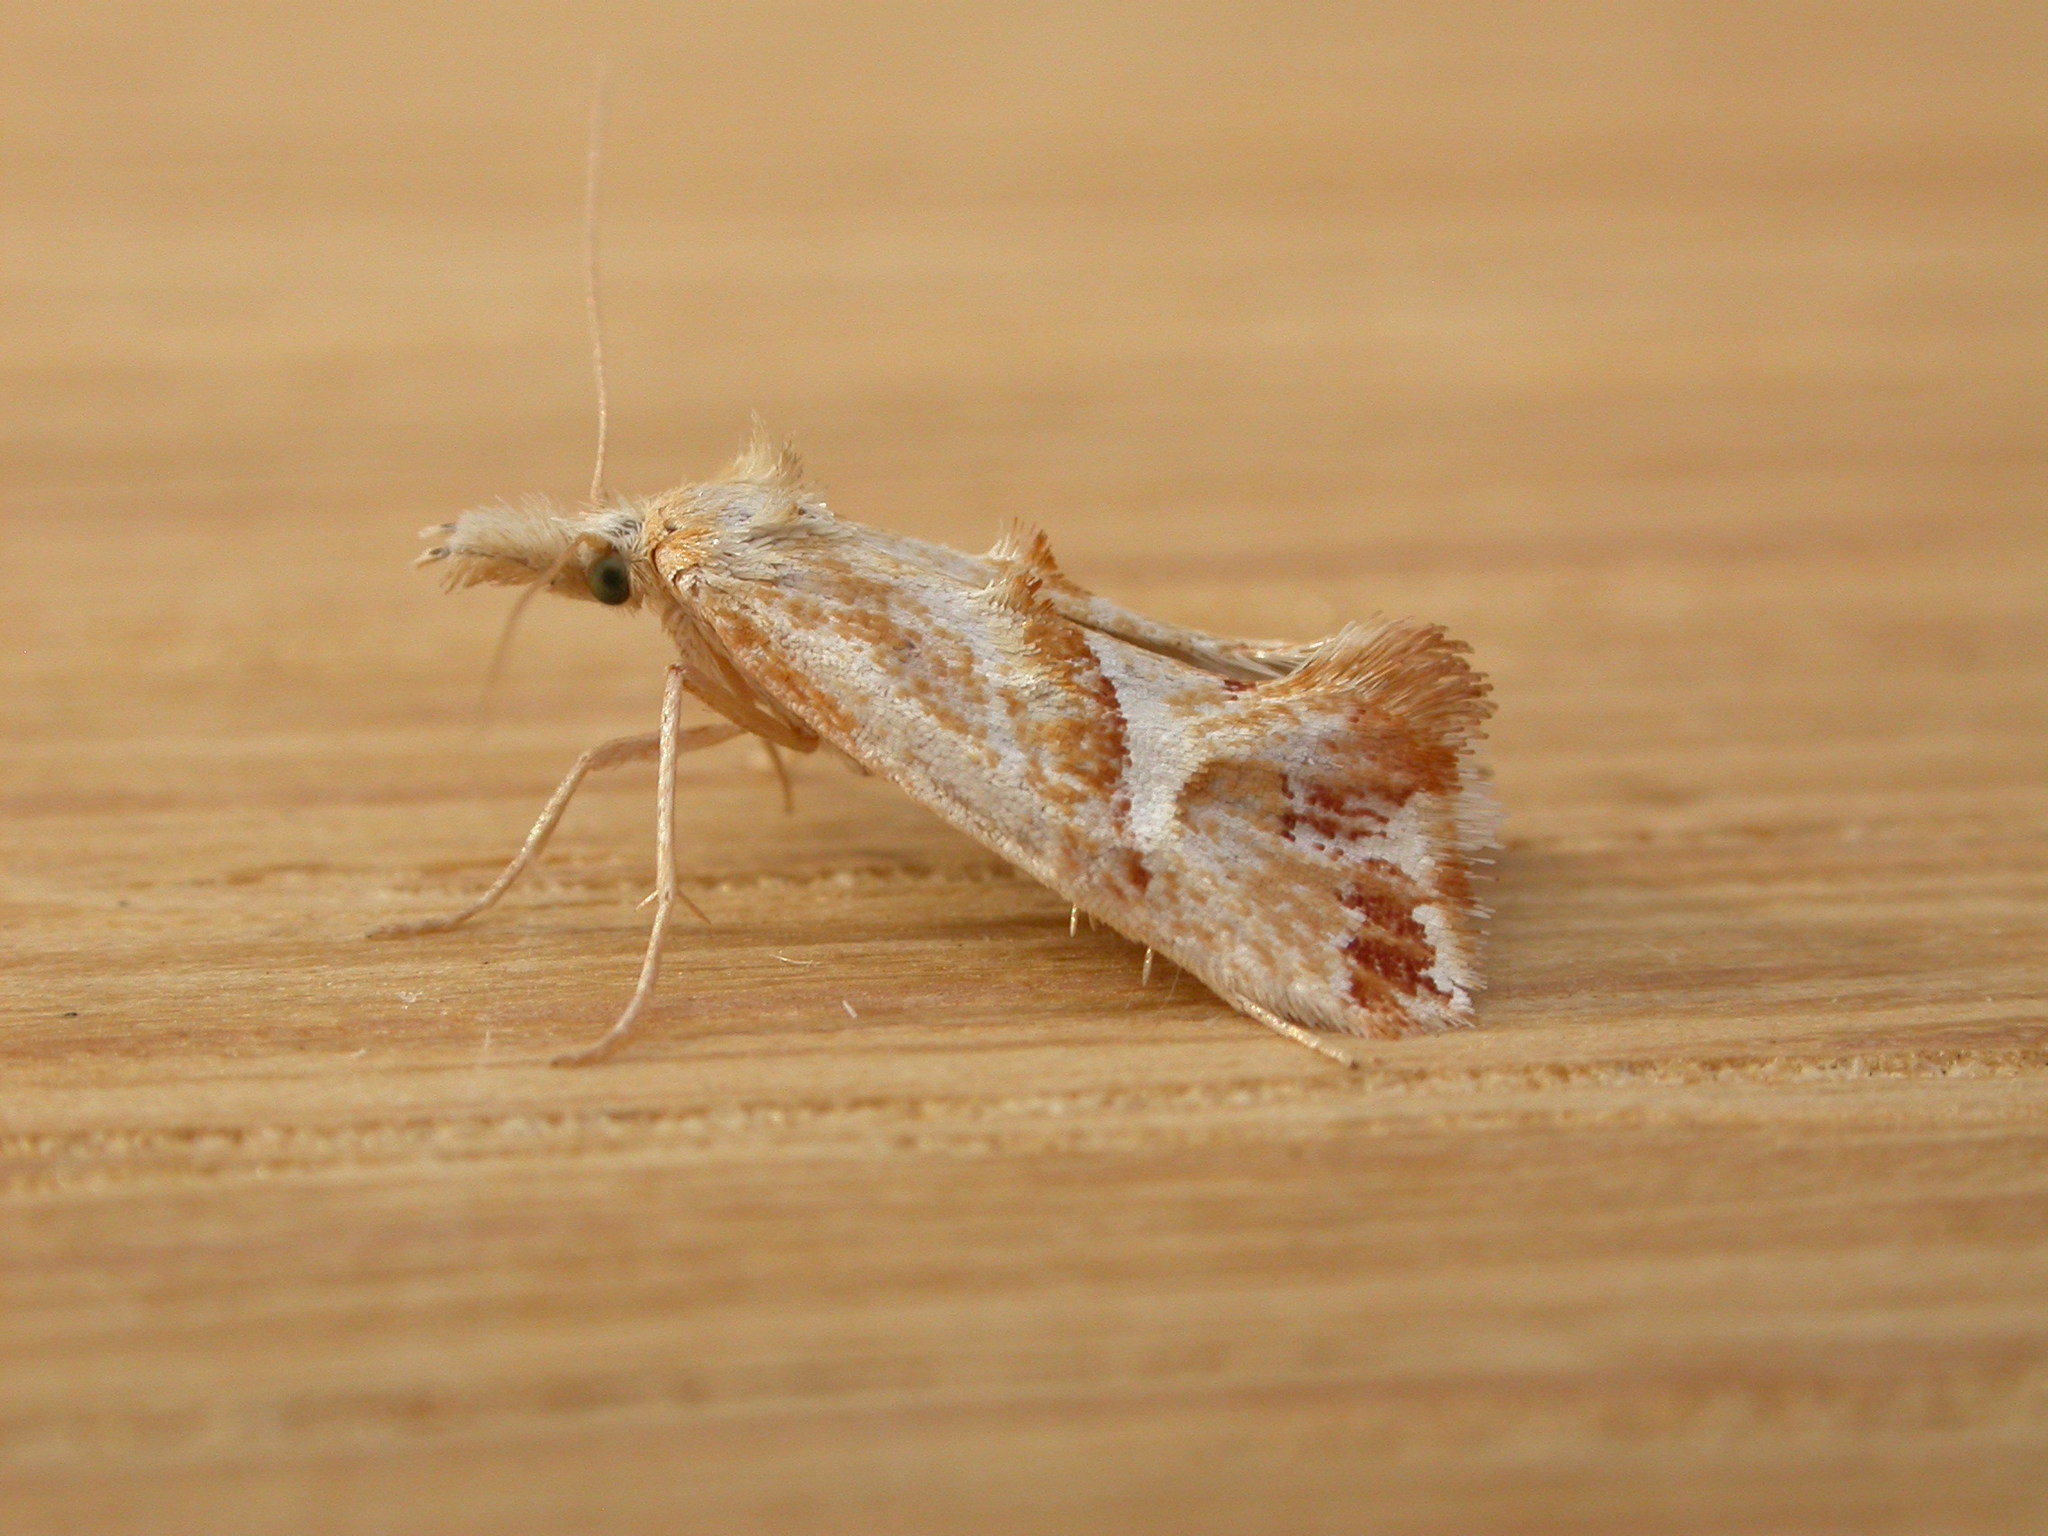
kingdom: Animalia
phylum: Arthropoda
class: Insecta
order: Lepidoptera
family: Tortricidae
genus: Heliocosma
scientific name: Heliocosma
